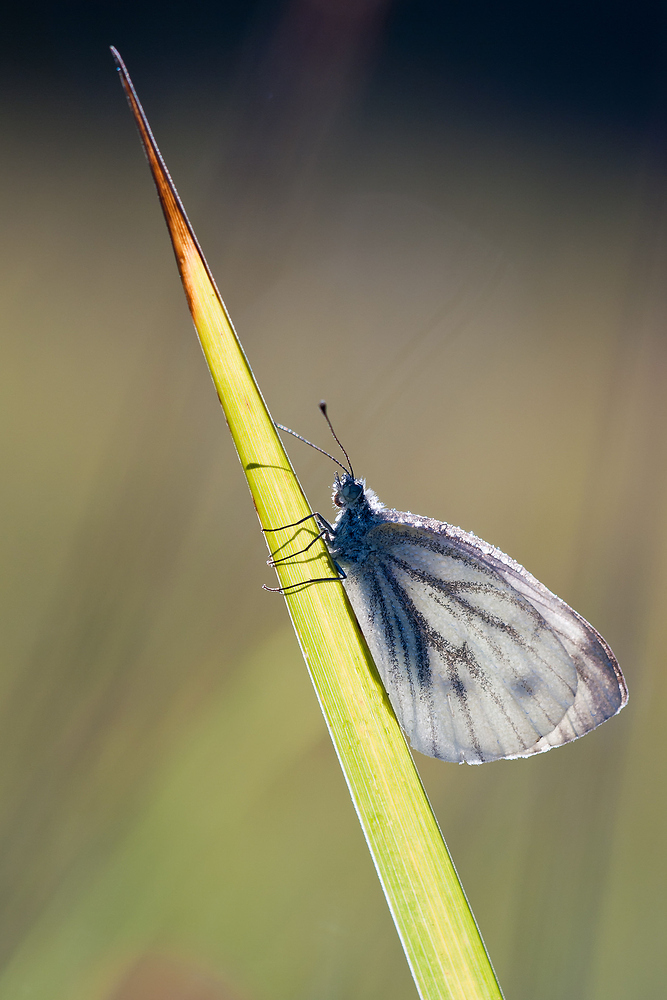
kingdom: Animalia
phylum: Arthropoda
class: Insecta
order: Lepidoptera
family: Pieridae
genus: Pieris
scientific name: Pieris napi
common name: Green-veined white
